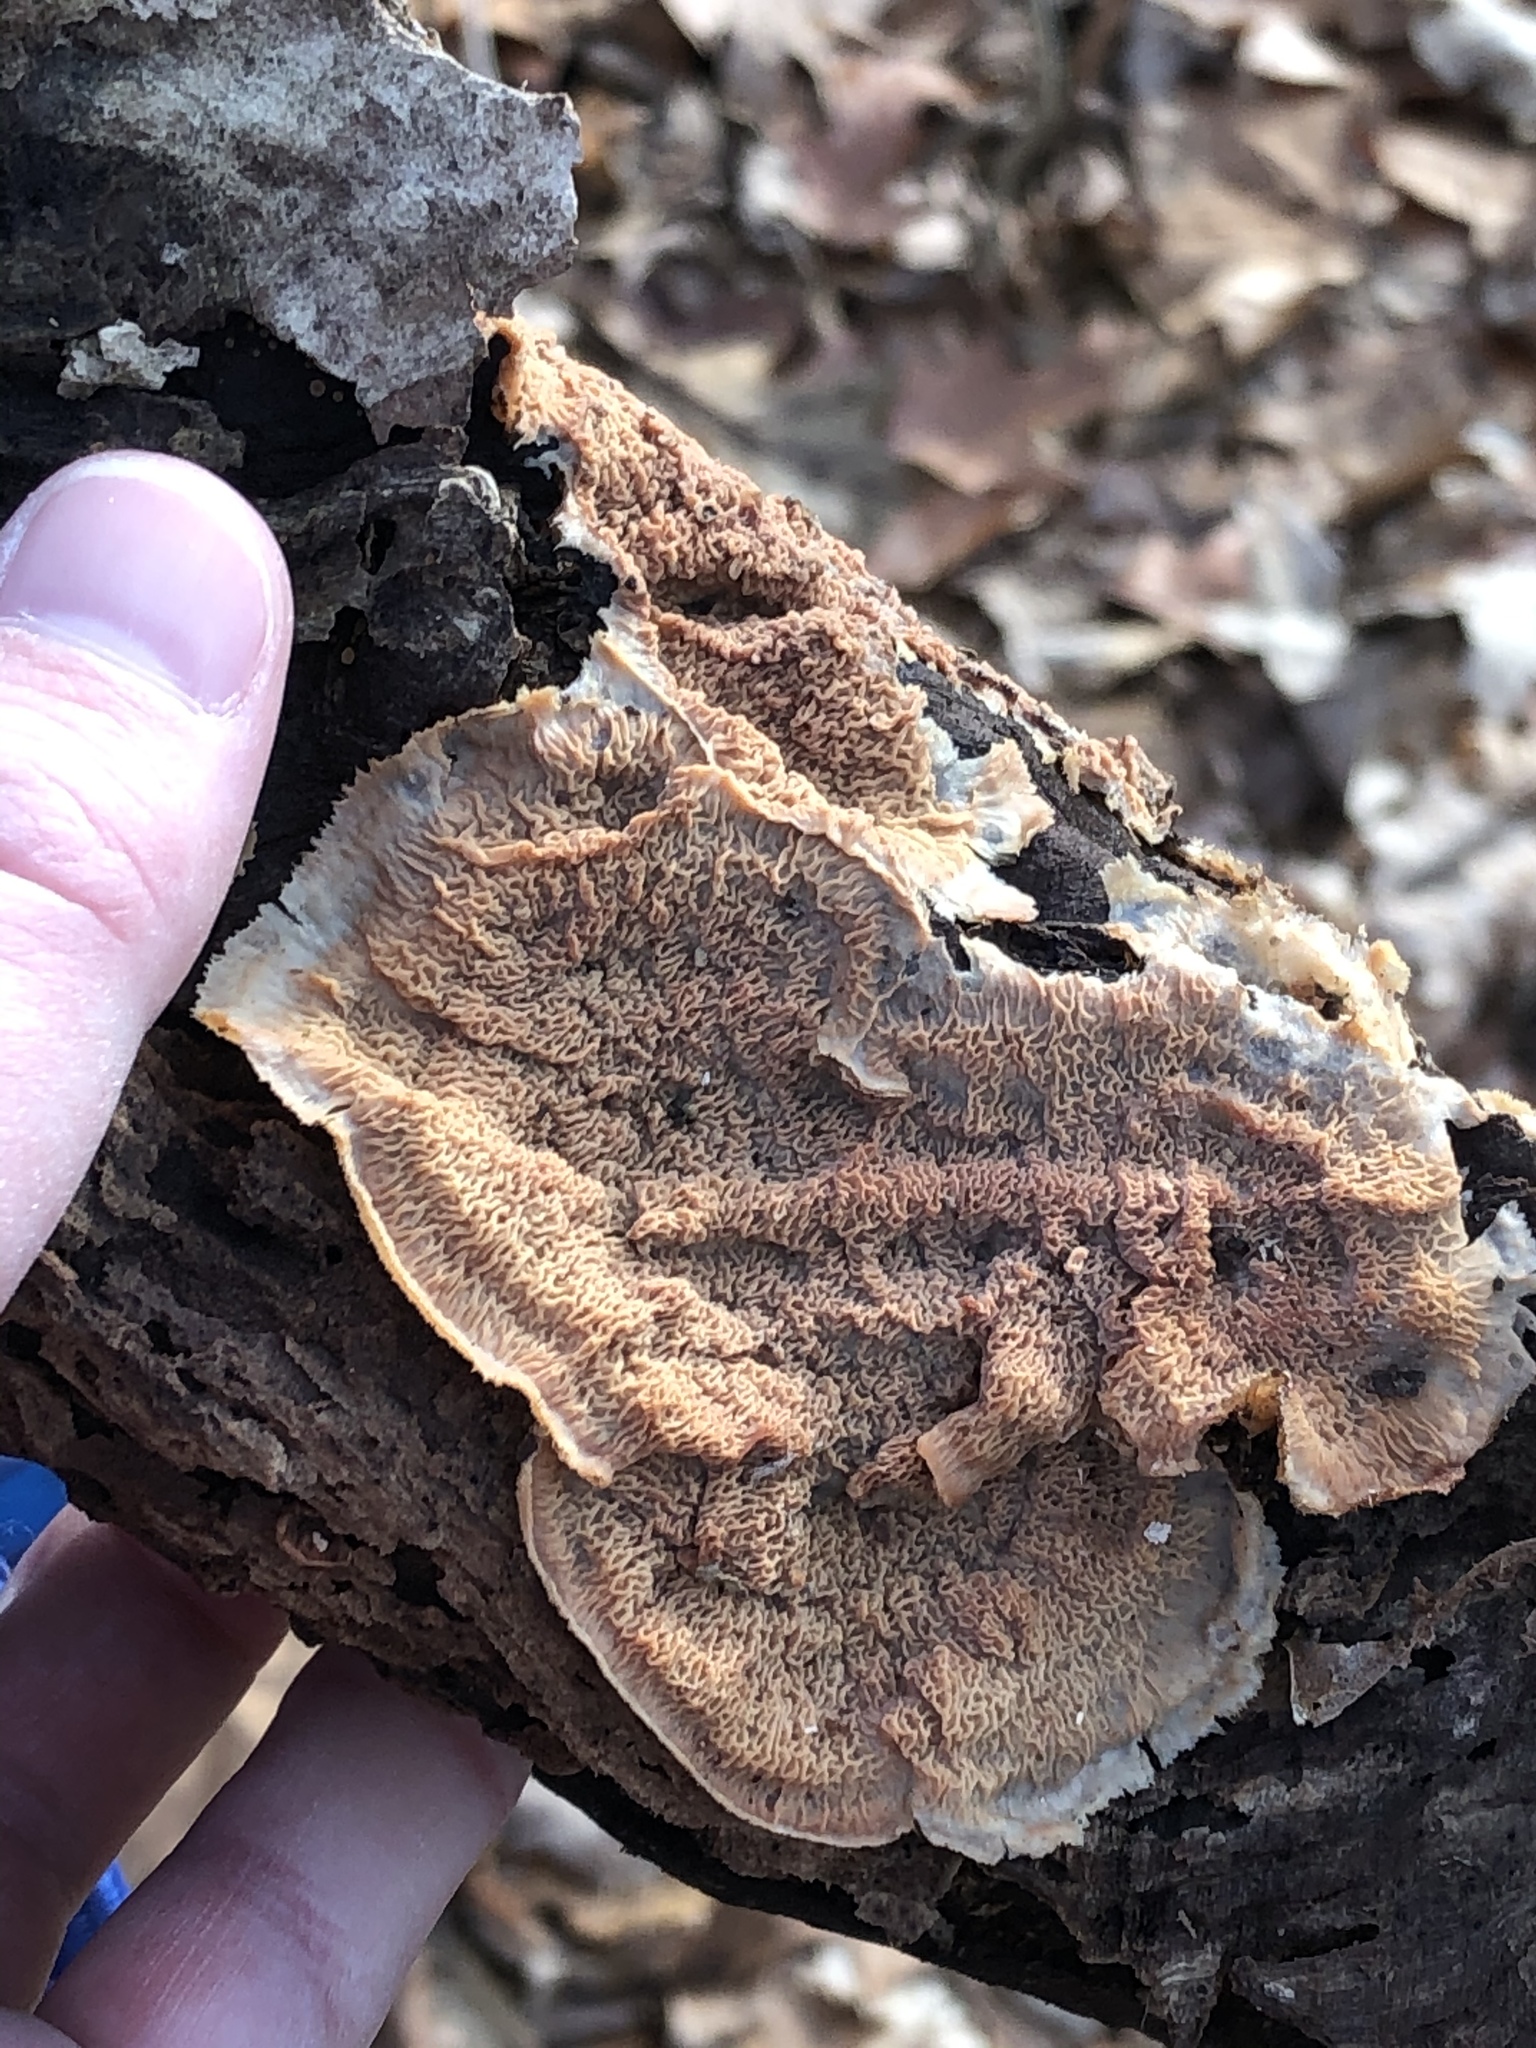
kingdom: Fungi
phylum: Basidiomycota
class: Agaricomycetes
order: Polyporales
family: Meruliaceae
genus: Phlebia
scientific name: Phlebia tremellosa
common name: Jelly rot
